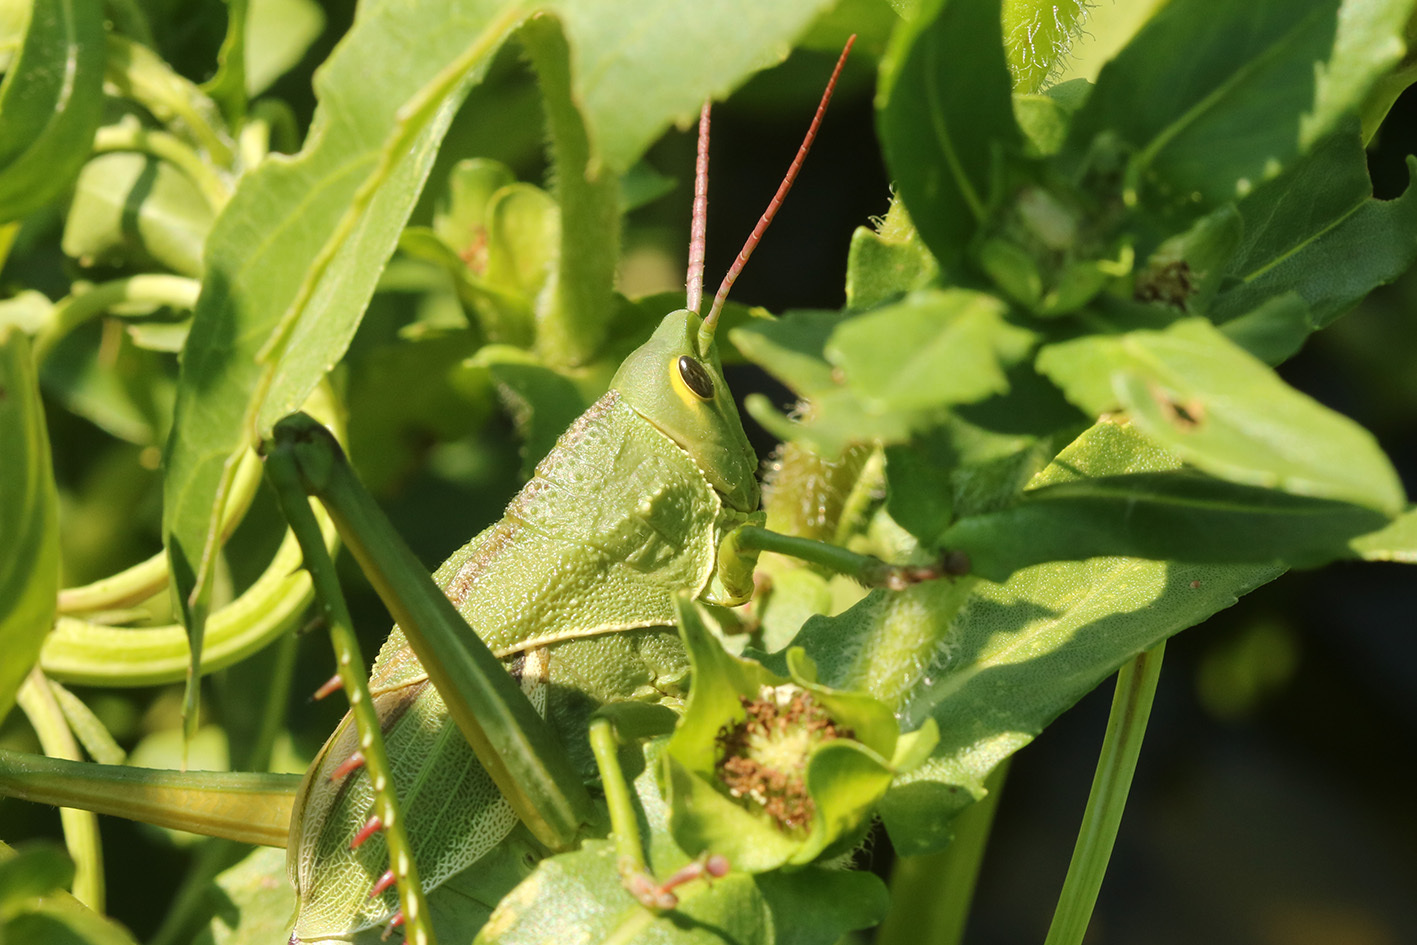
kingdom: Animalia
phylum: Arthropoda
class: Insecta
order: Orthoptera
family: Romaleidae
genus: Staleochlora
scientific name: Staleochlora viridicata
